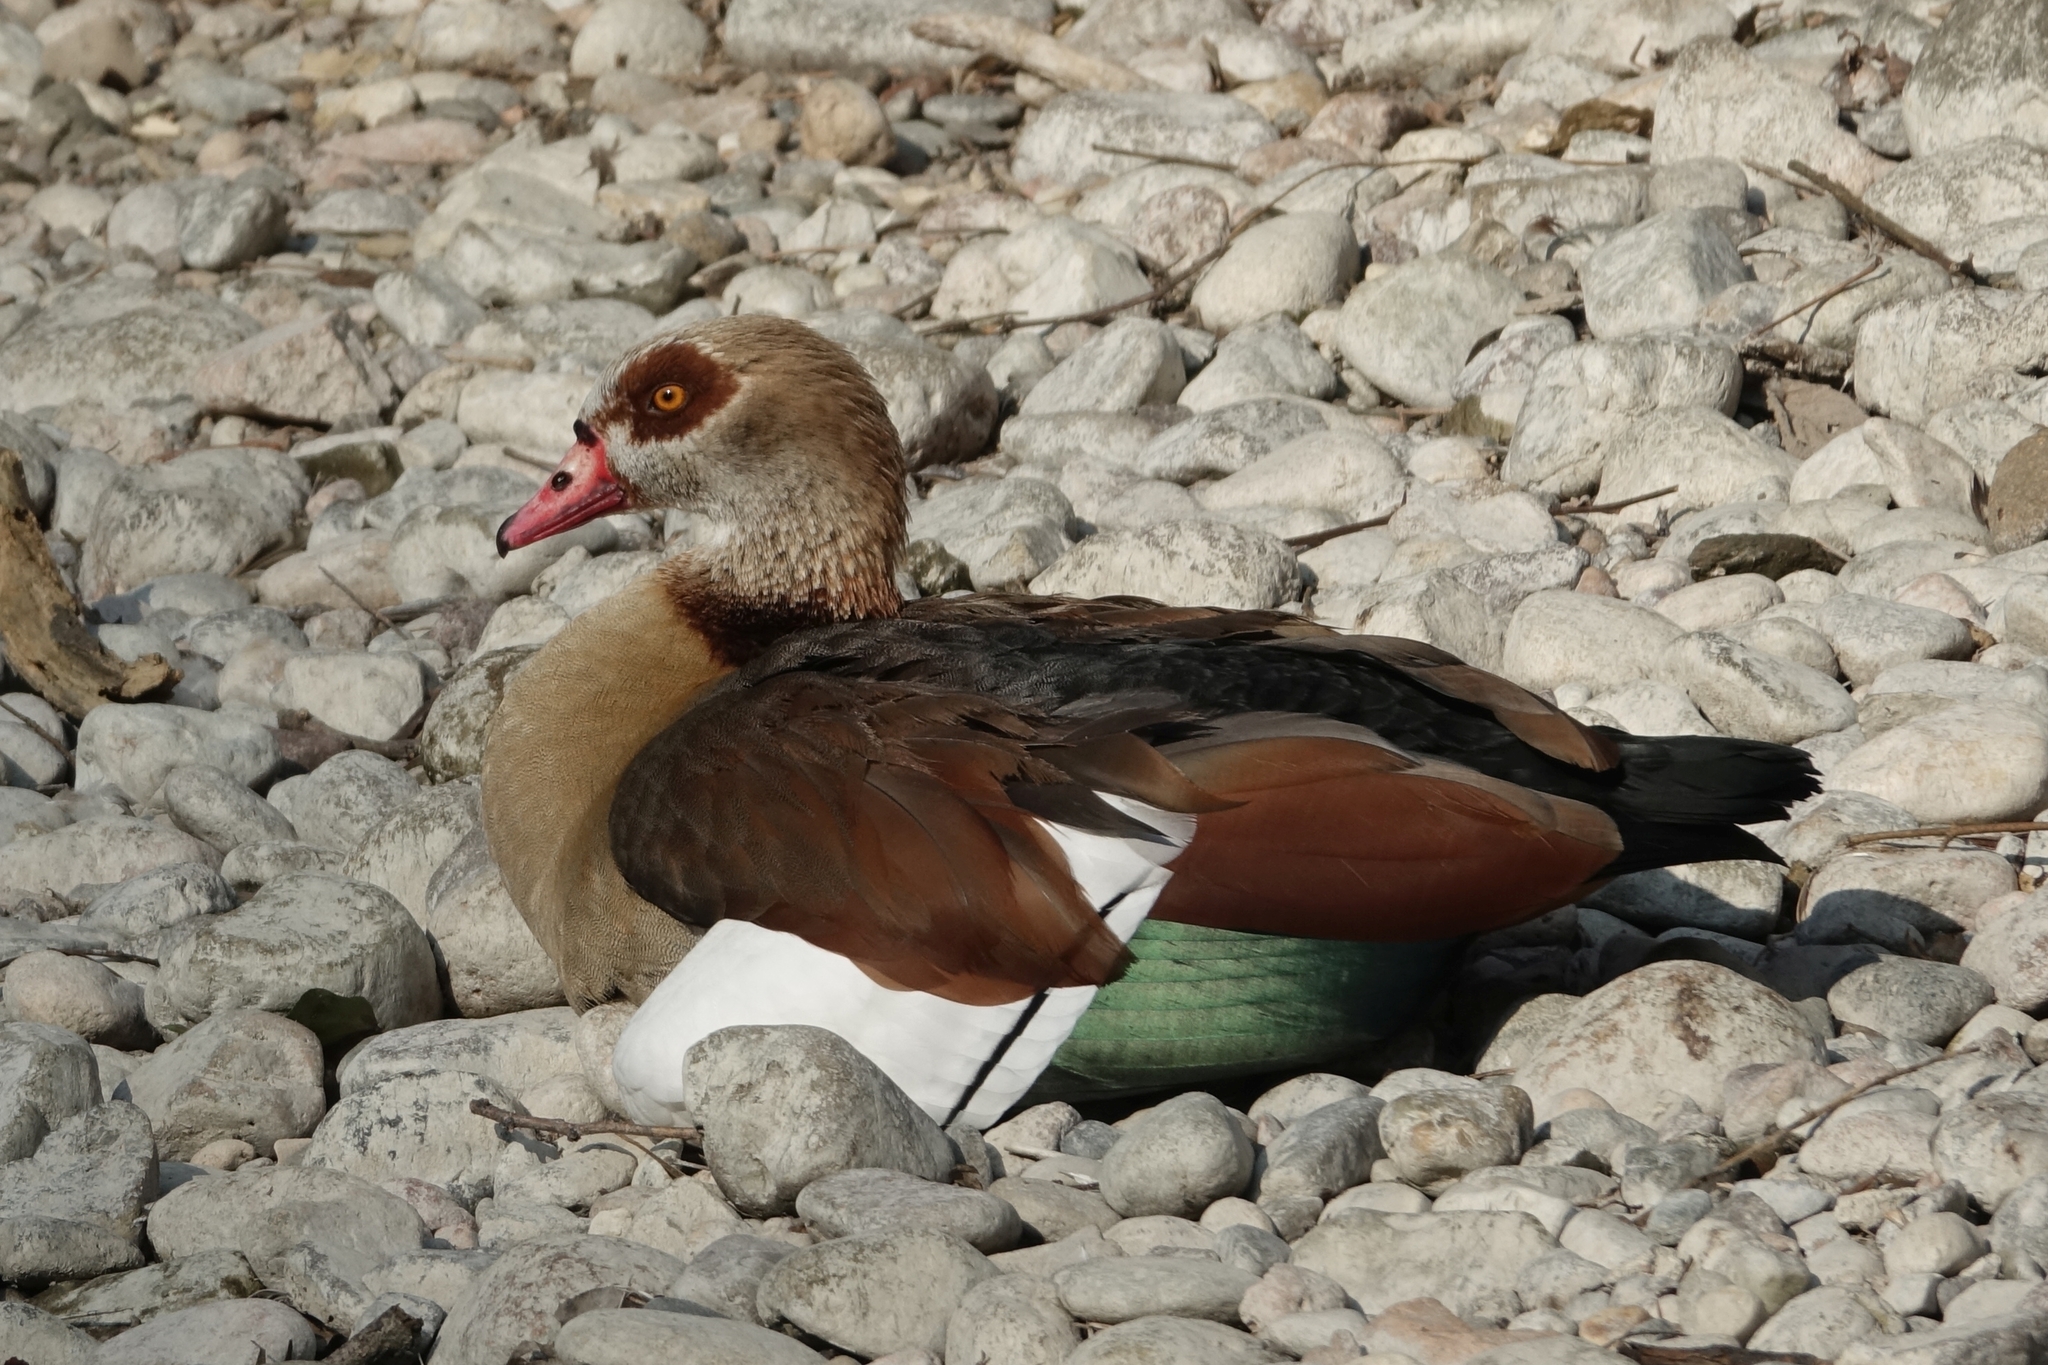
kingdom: Animalia
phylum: Chordata
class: Aves
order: Anseriformes
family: Anatidae
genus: Alopochen
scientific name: Alopochen aegyptiaca
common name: Egyptian goose
